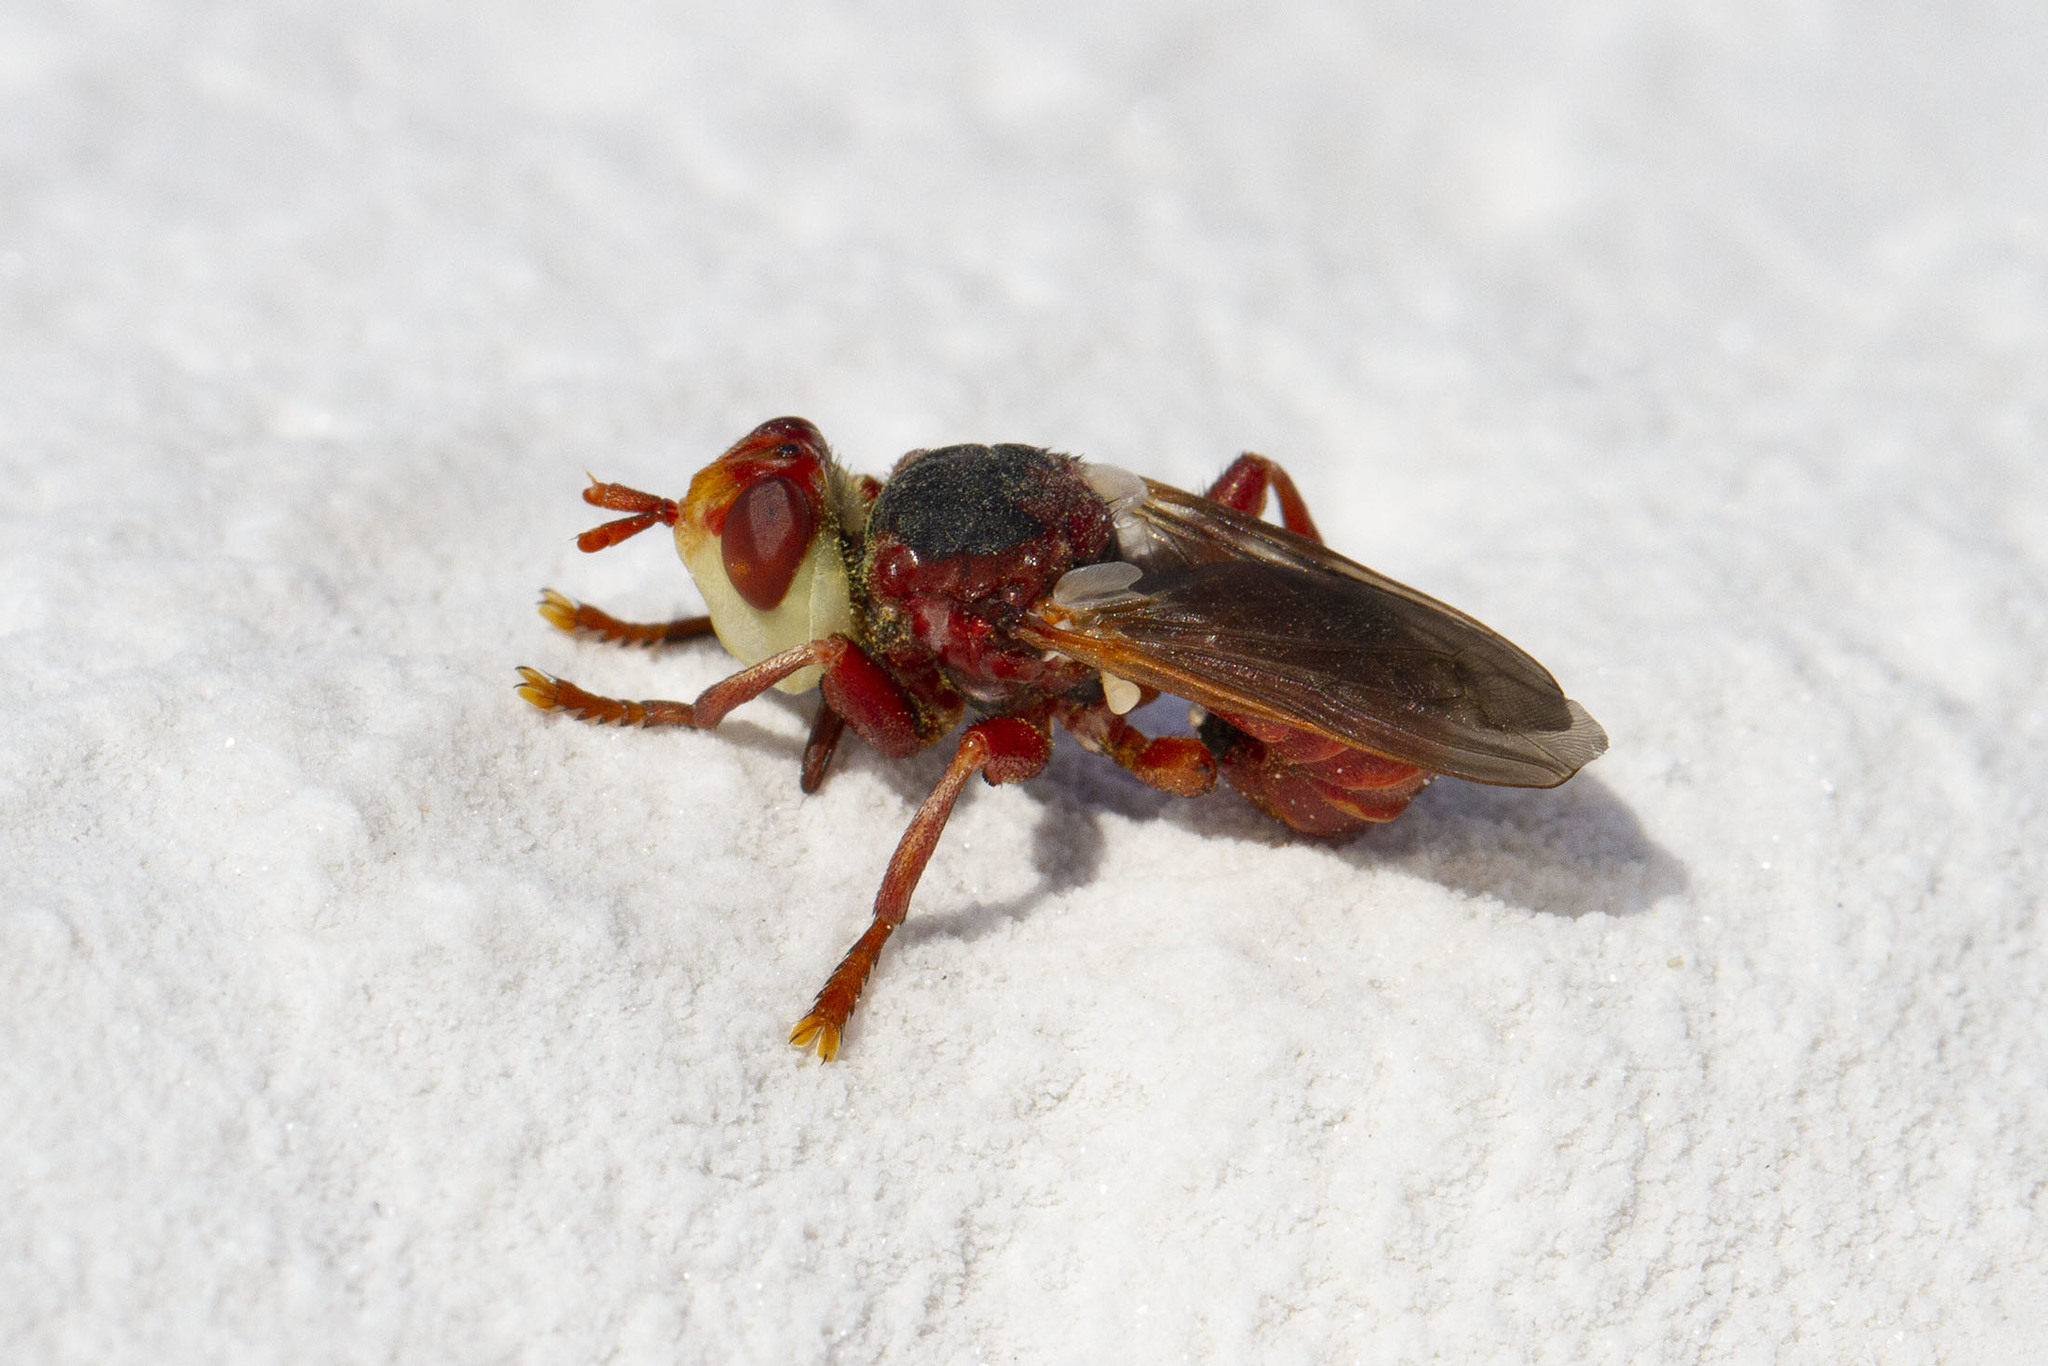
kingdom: Animalia
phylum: Arthropoda
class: Insecta
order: Diptera
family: Conopidae
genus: Myopa
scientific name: Myopa dorsalis
